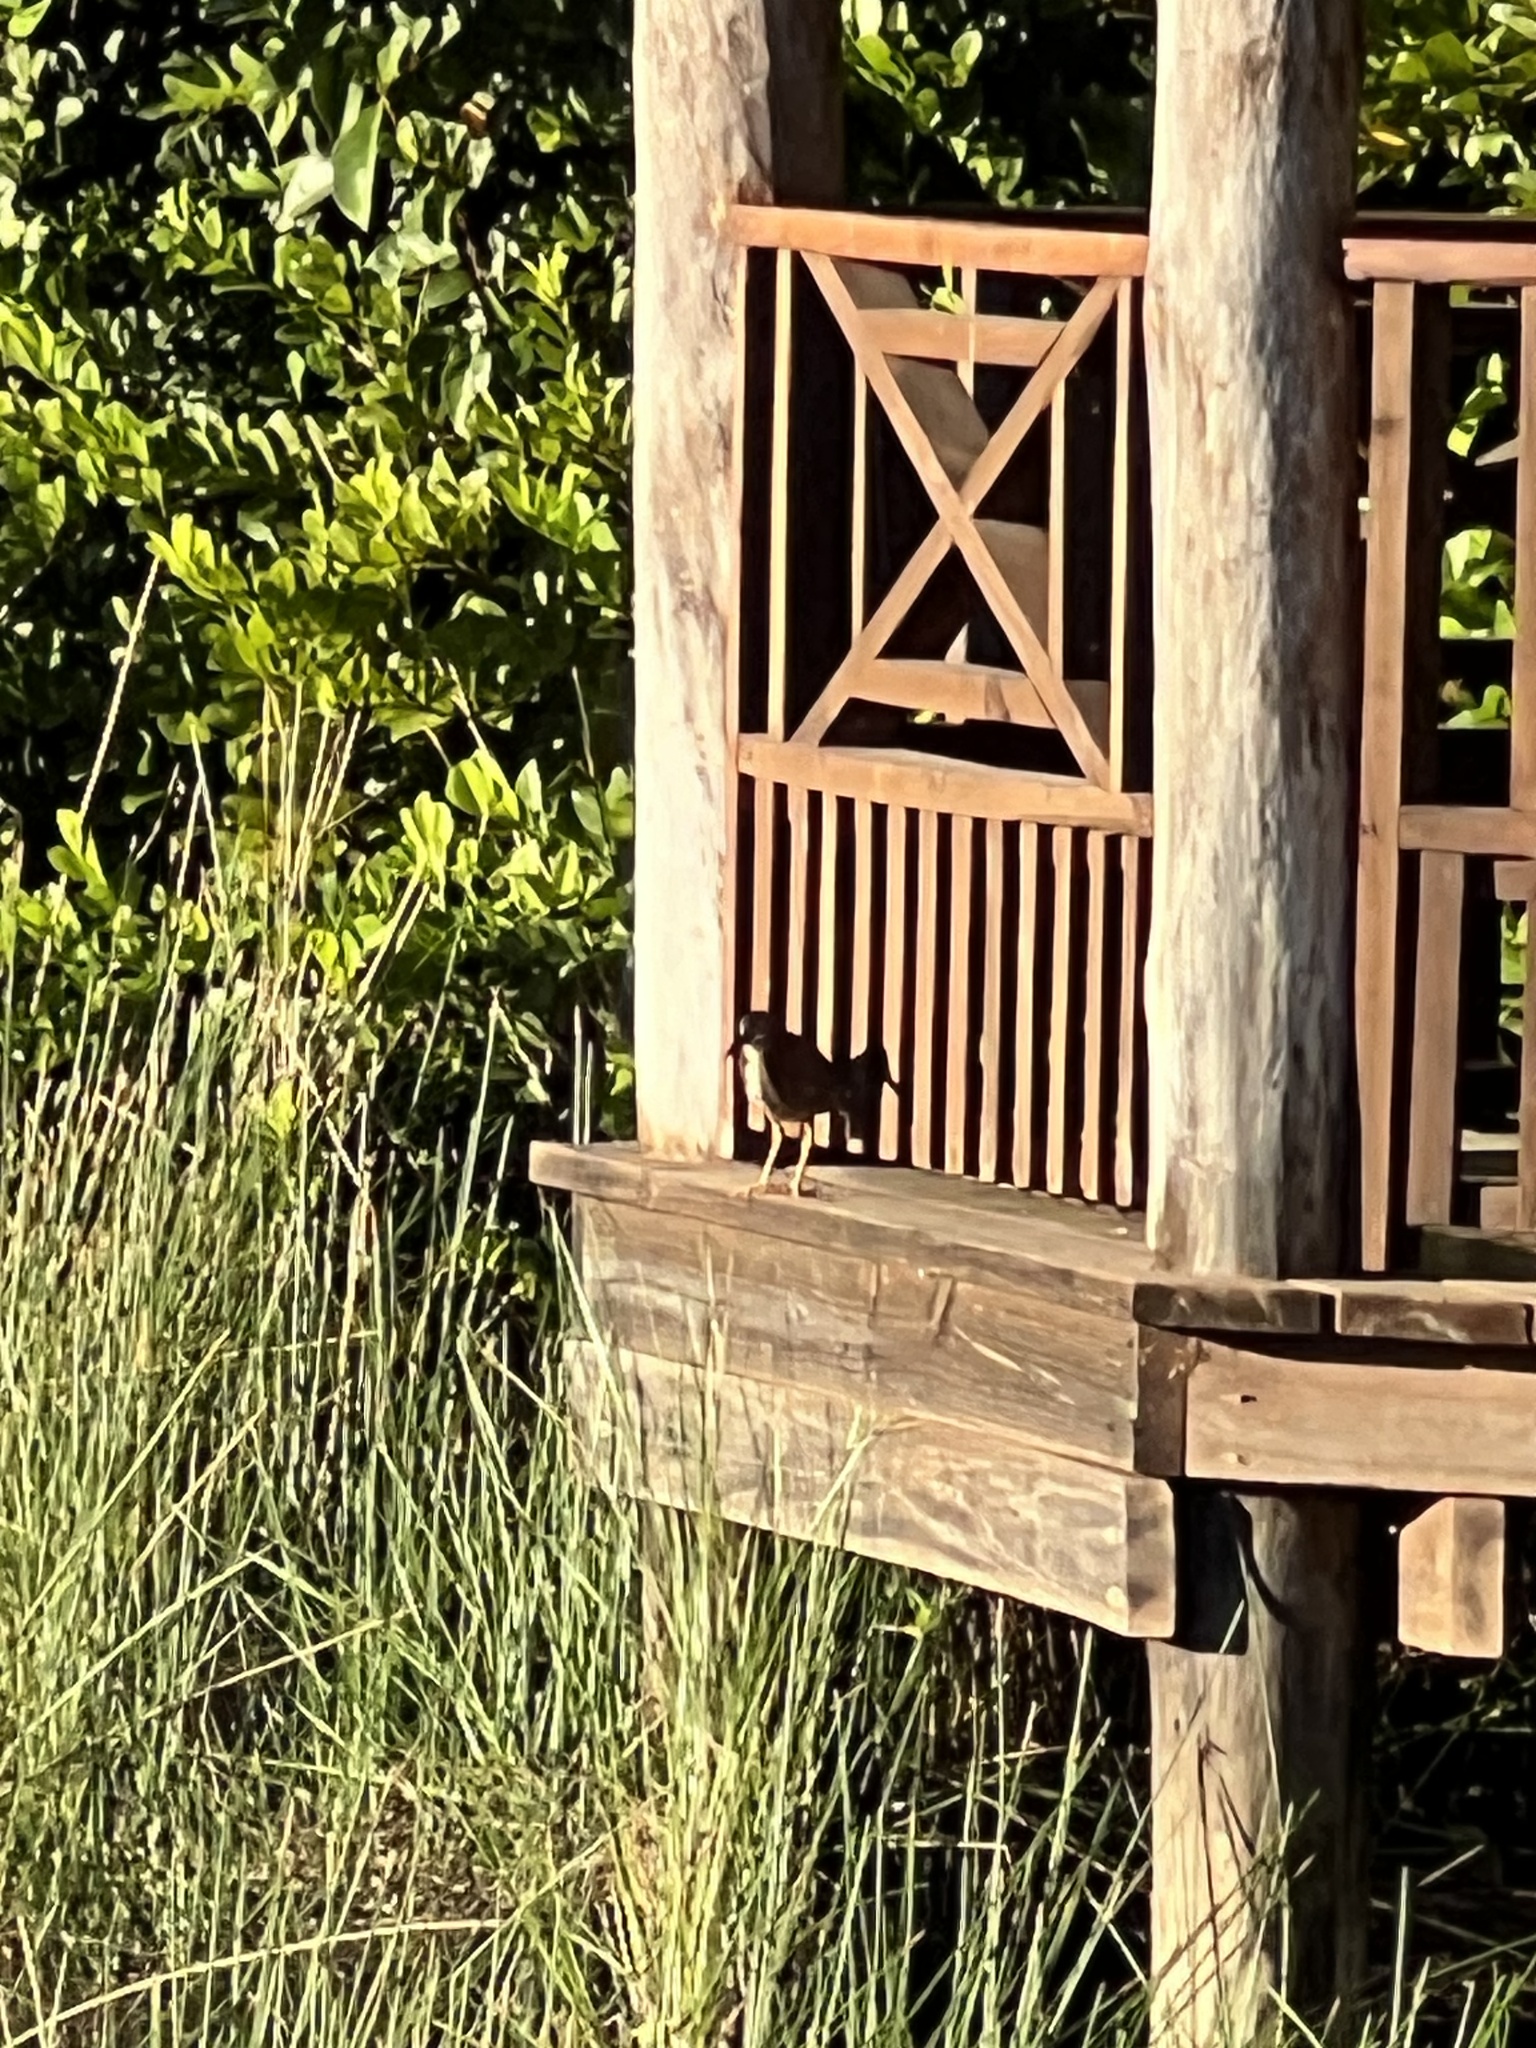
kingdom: Animalia
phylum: Chordata
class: Aves
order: Pelecaniformes
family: Ardeidae
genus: Butorides
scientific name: Butorides virescens
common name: Green heron
